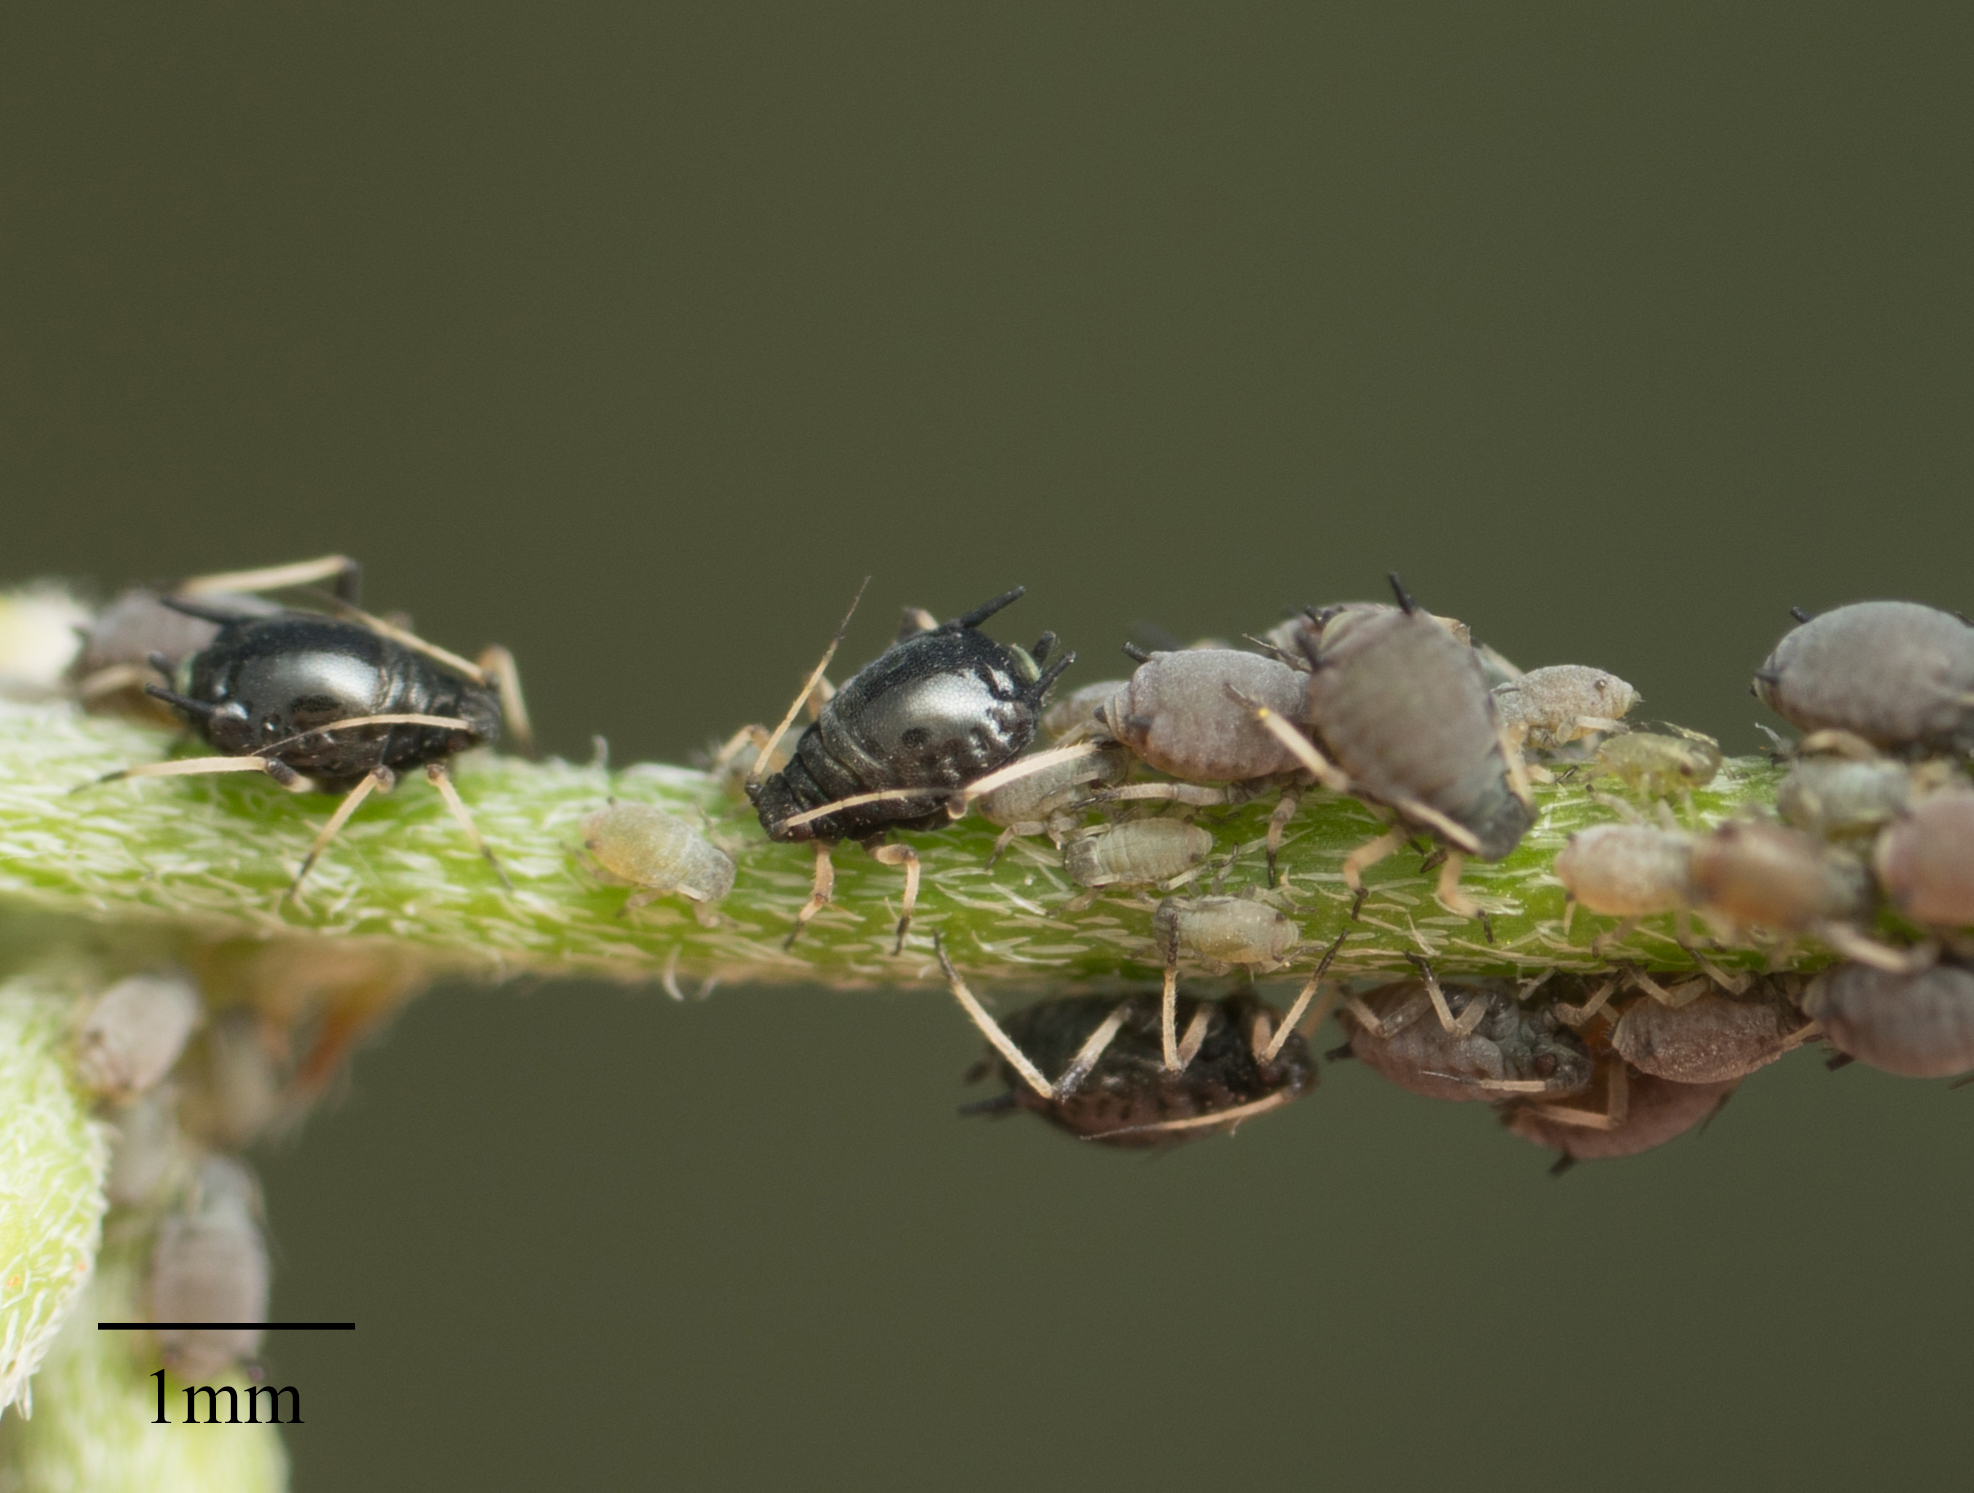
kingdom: Animalia
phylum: Arthropoda
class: Insecta
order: Hemiptera
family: Aphididae
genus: Aphis
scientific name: Aphis craccivora
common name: Cowpea aphid
